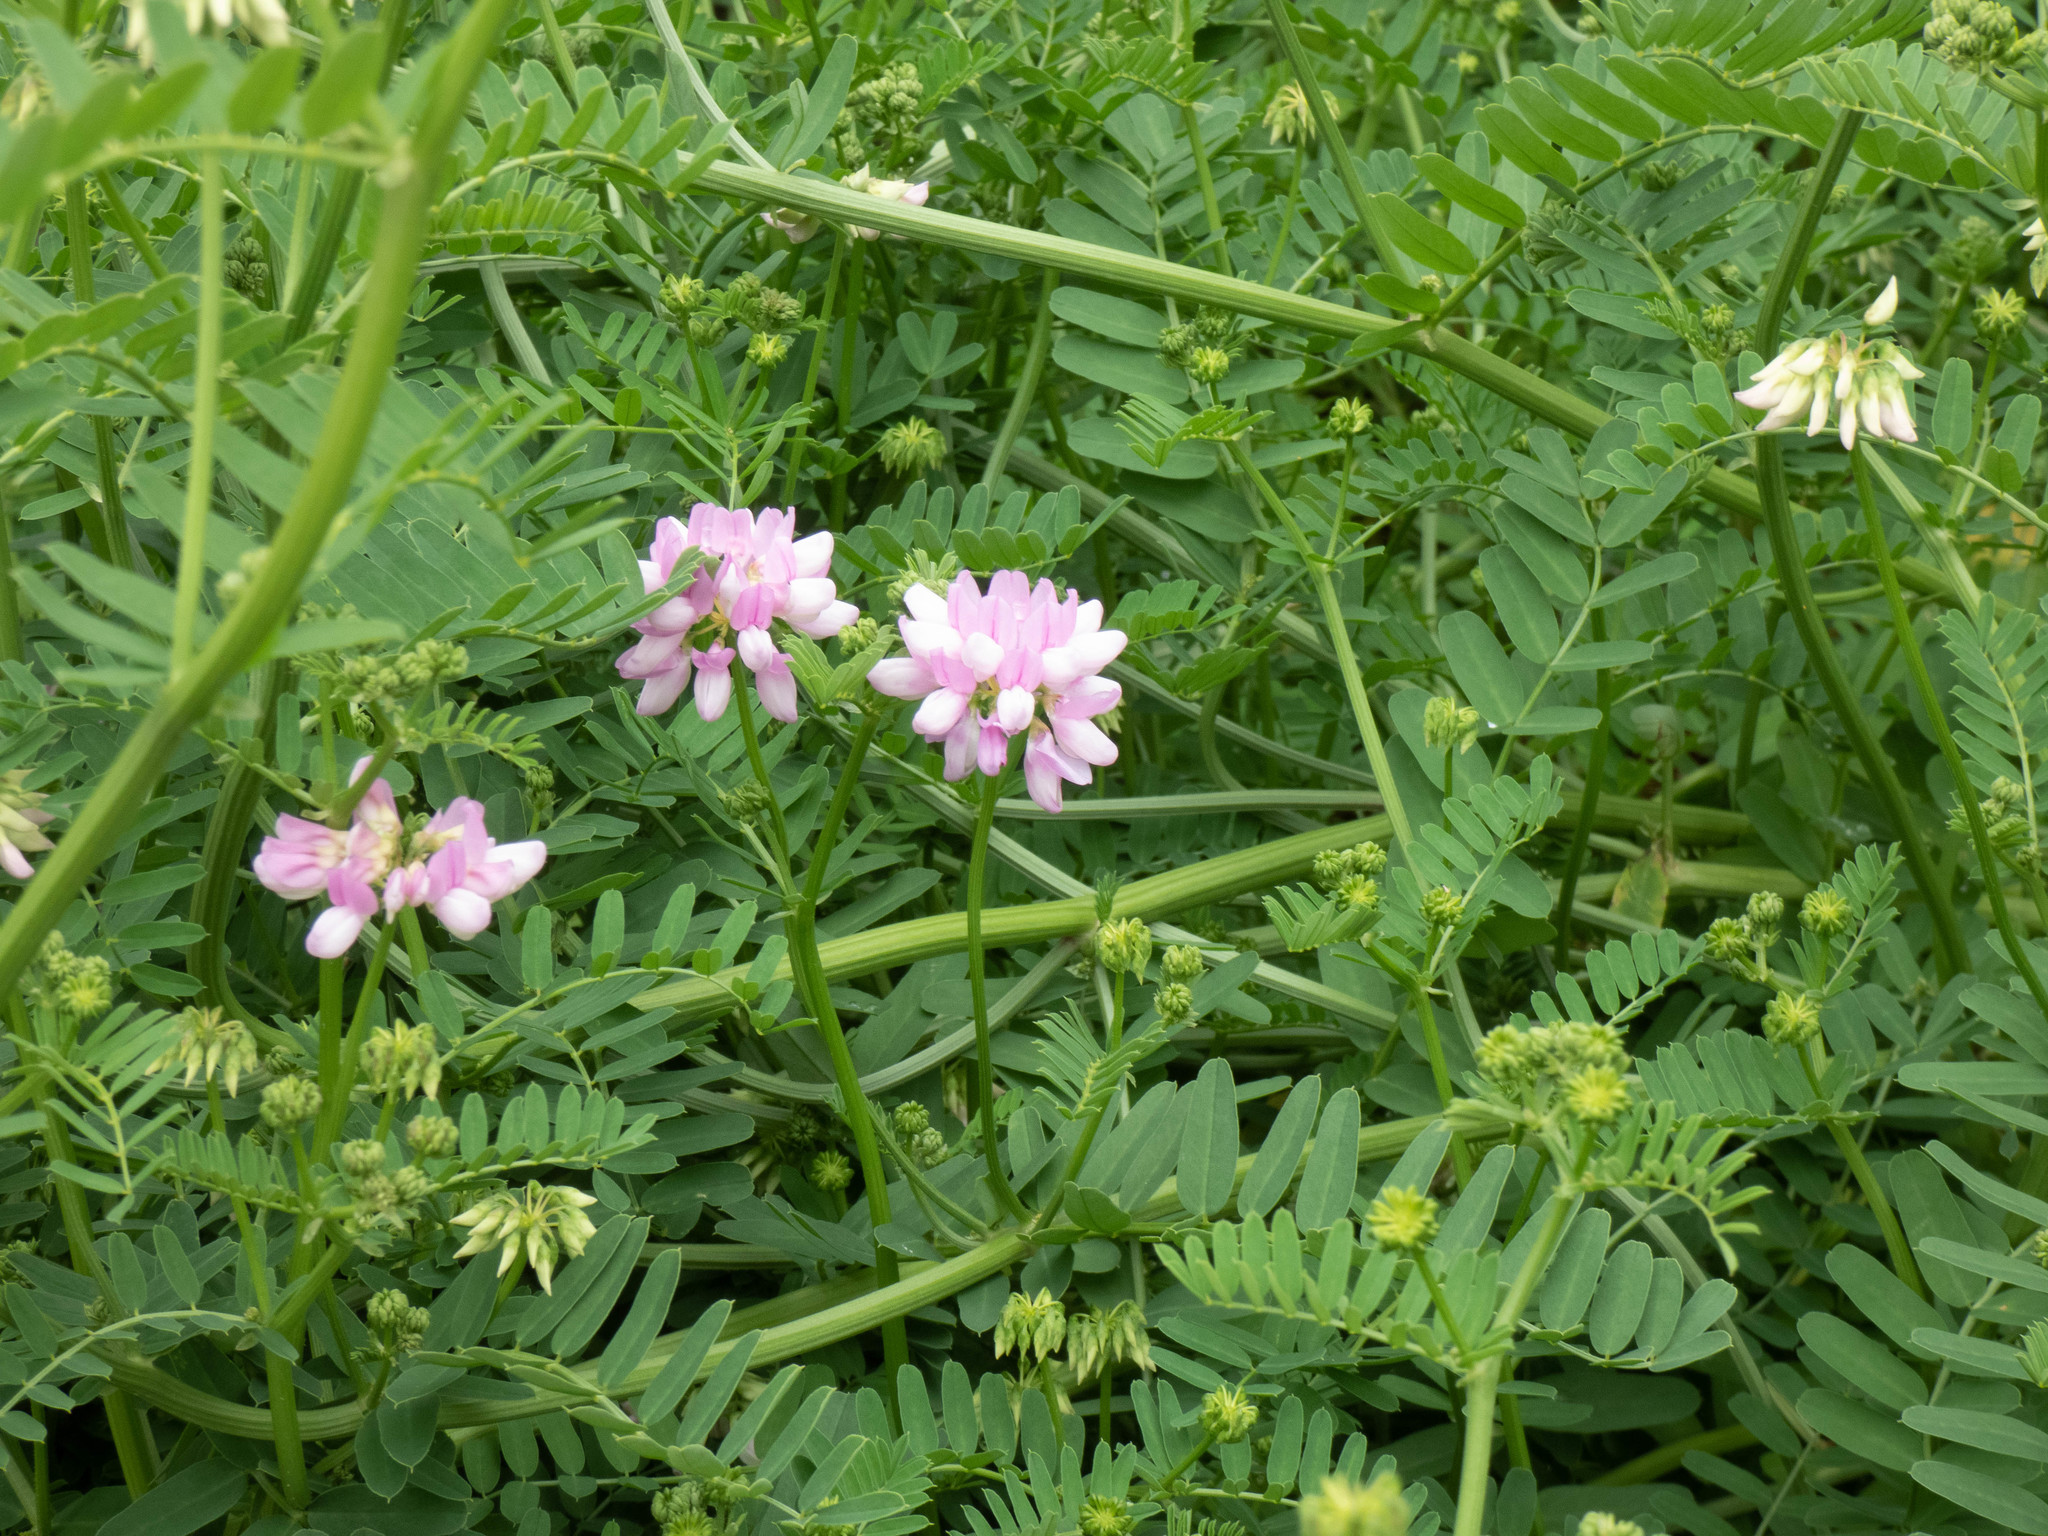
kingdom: Plantae
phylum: Tracheophyta
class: Magnoliopsida
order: Fabales
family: Fabaceae
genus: Coronilla
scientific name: Coronilla varia
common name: Crownvetch
